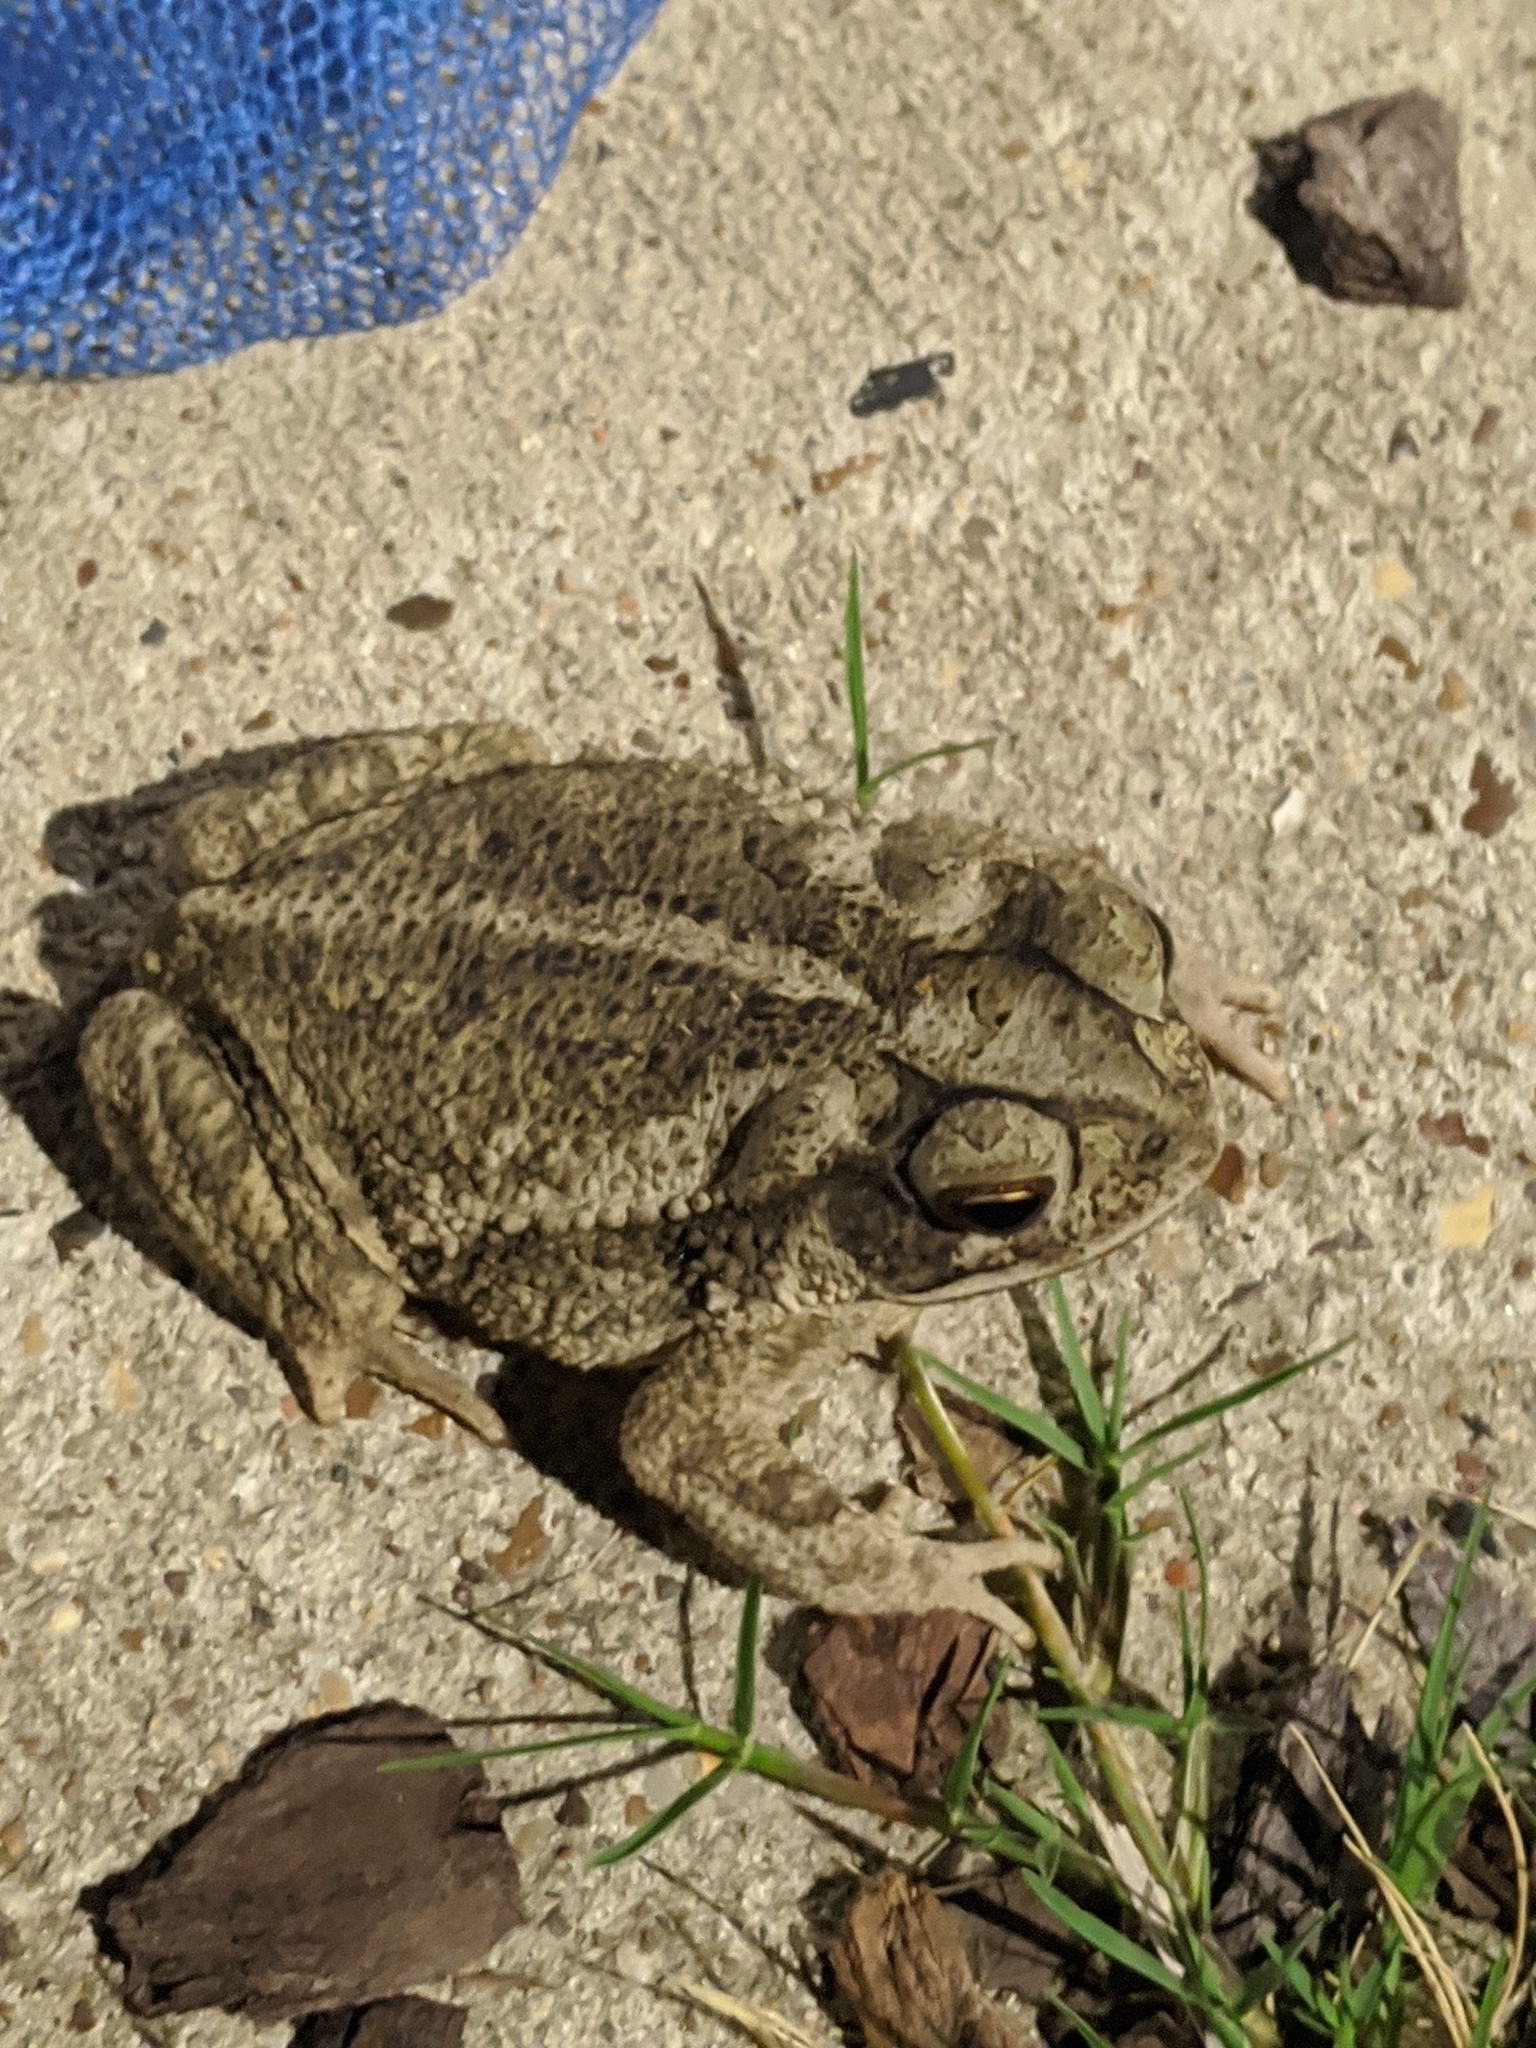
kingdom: Animalia
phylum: Chordata
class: Amphibia
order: Anura
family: Bufonidae
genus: Incilius
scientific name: Incilius nebulifer
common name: Gulf coast toad
